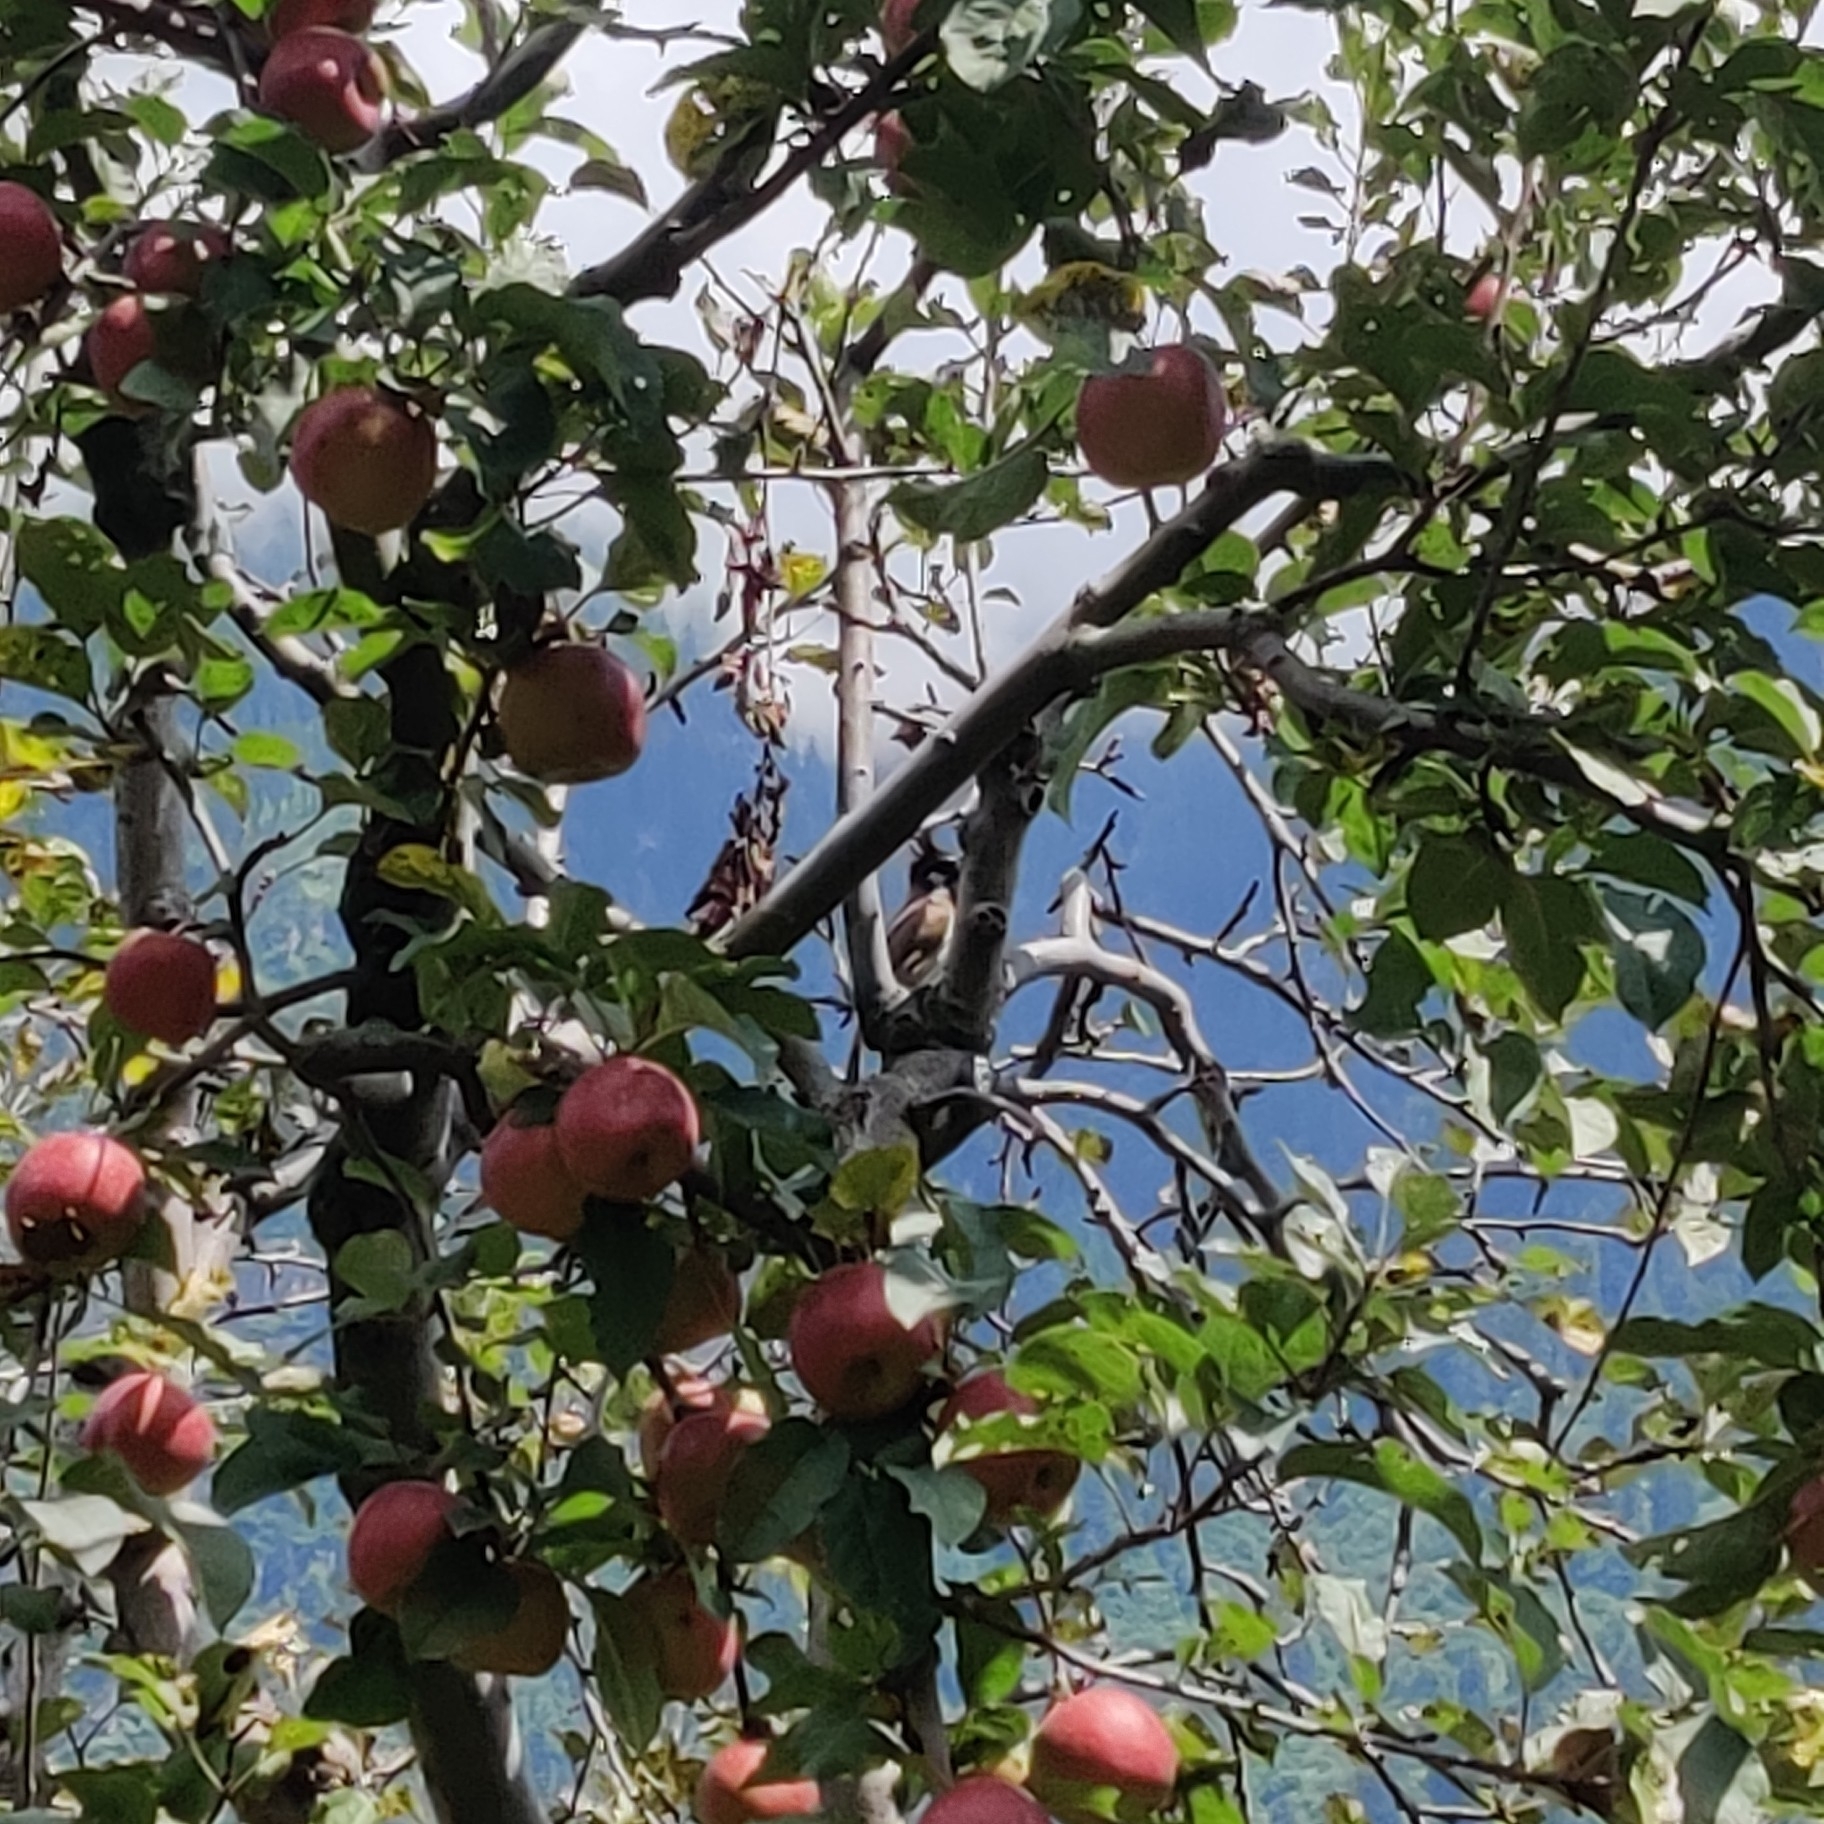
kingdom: Animalia
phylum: Chordata
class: Aves
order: Passeriformes
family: Pycnonotidae
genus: Pycnonotus
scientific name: Pycnonotus leucogenys
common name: Himalayan bulbul
